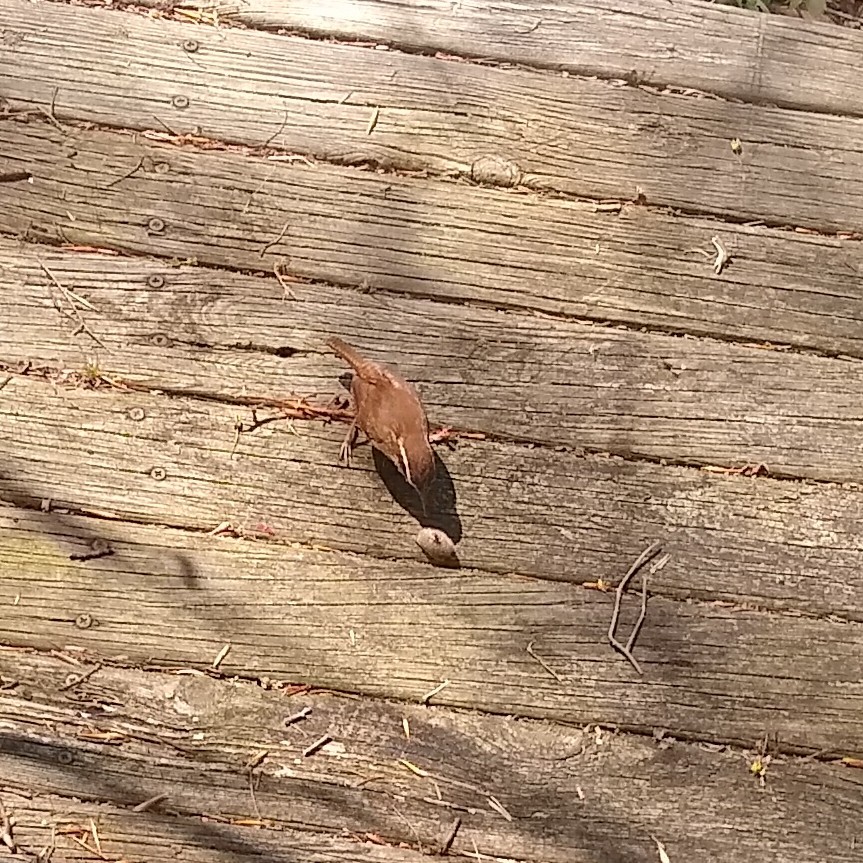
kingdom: Animalia
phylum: Chordata
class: Aves
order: Passeriformes
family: Troglodytidae
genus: Thryothorus
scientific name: Thryothorus ludovicianus
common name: Carolina wren
